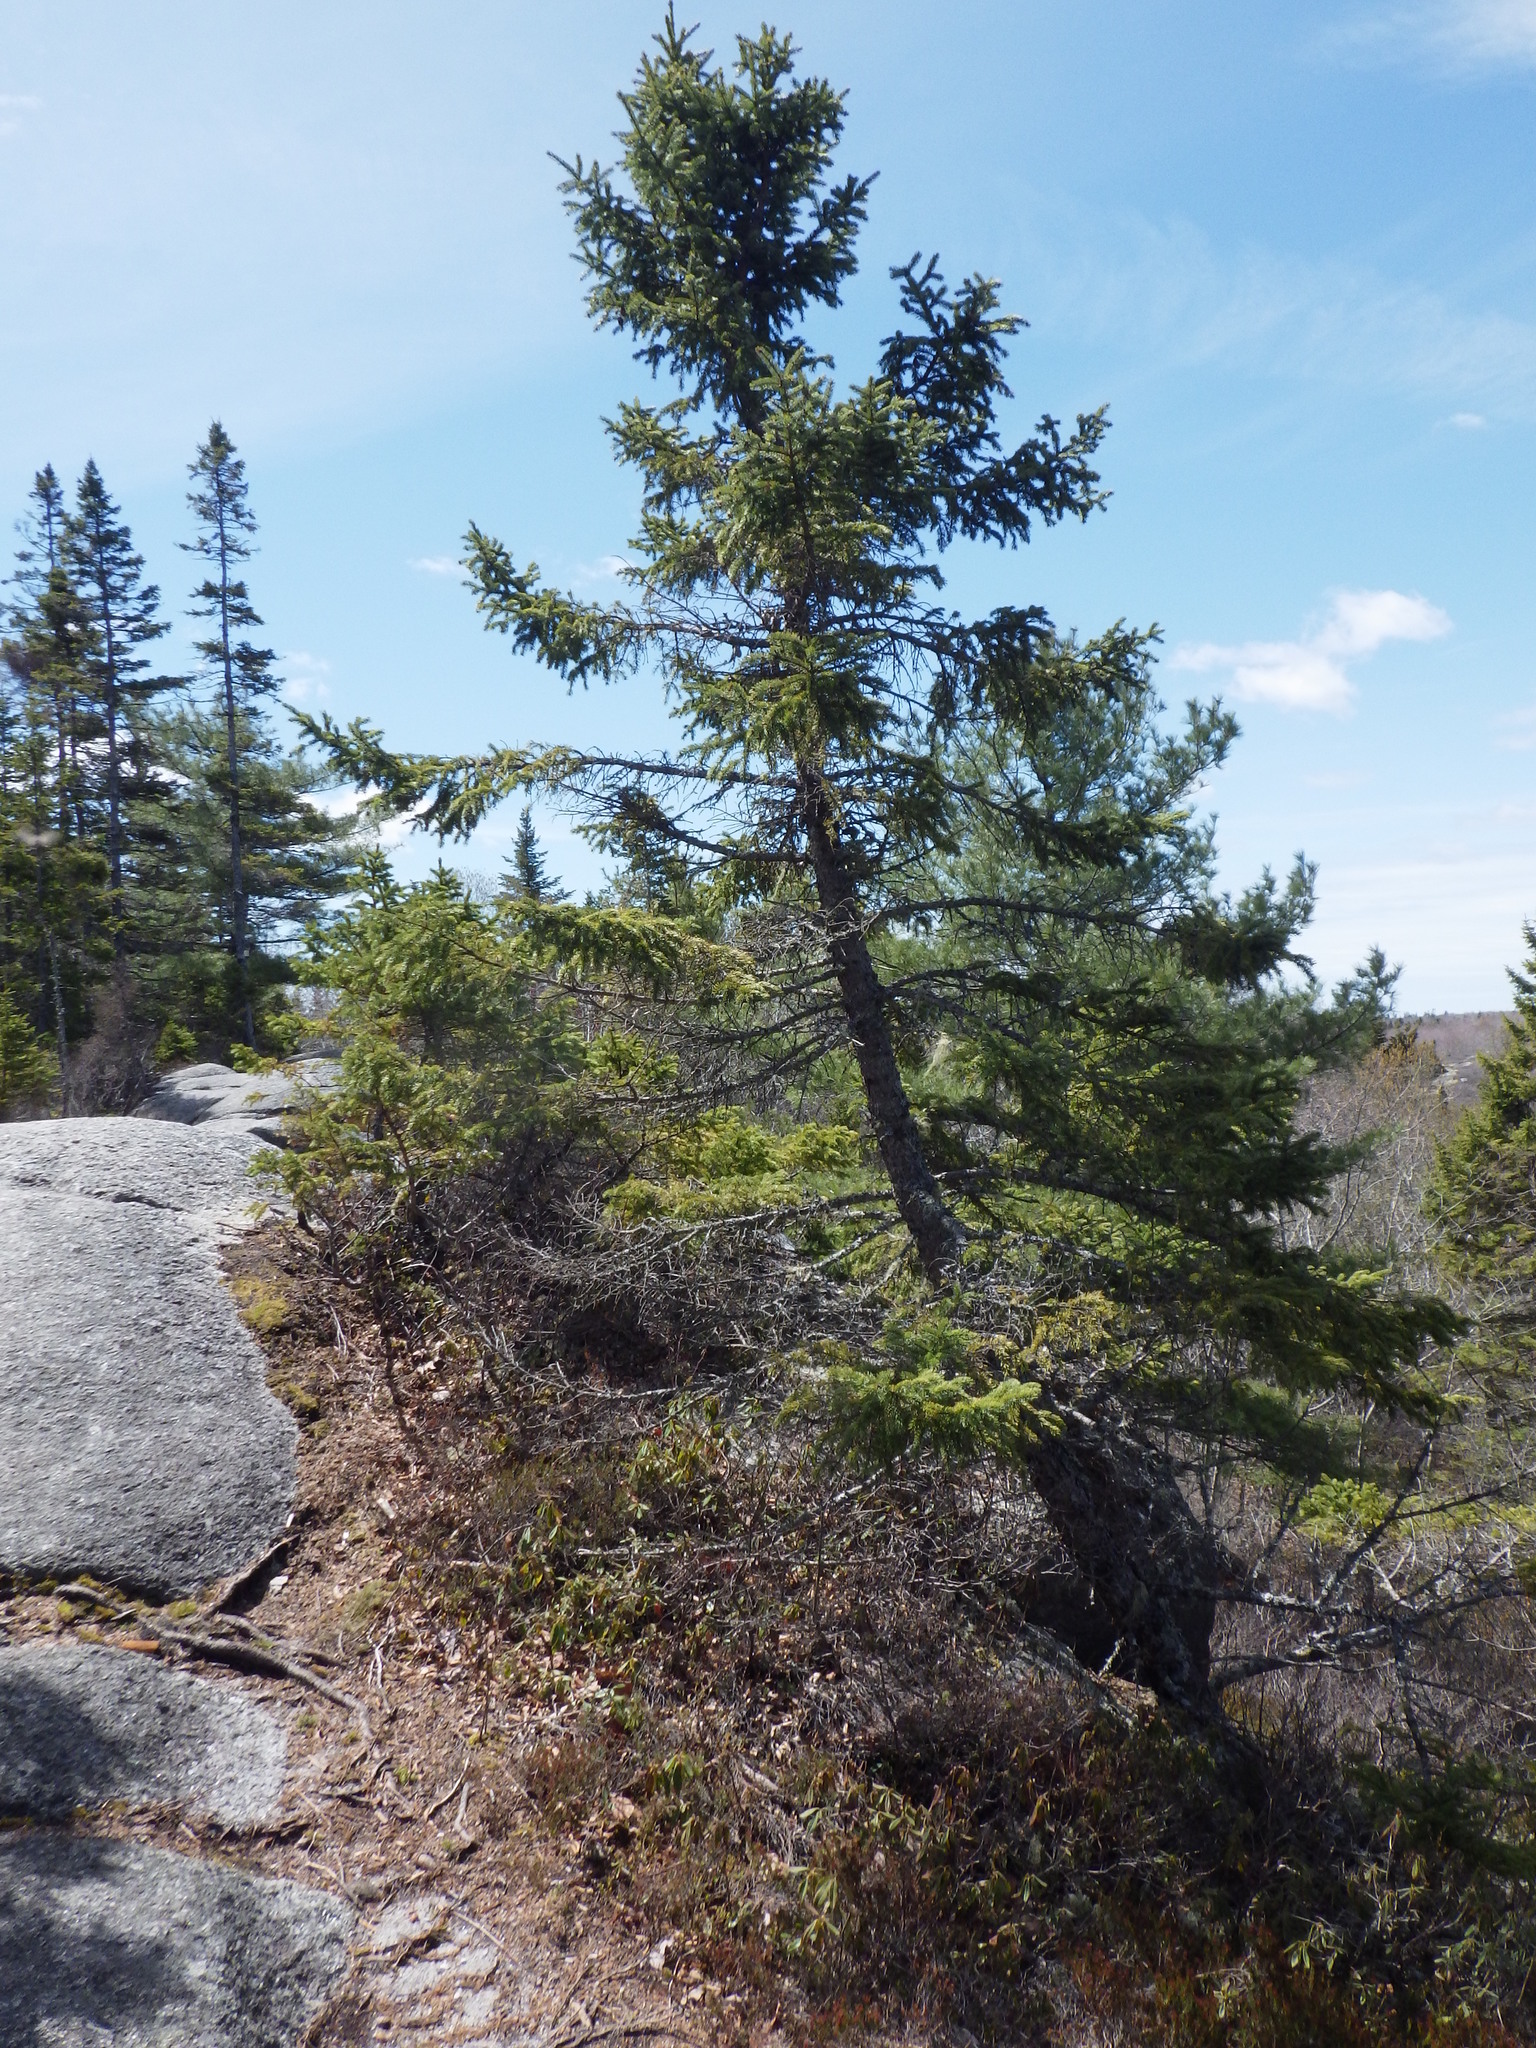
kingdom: Plantae
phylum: Tracheophyta
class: Pinopsida
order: Pinales
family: Pinaceae
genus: Picea
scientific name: Picea mariana
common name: Black spruce
